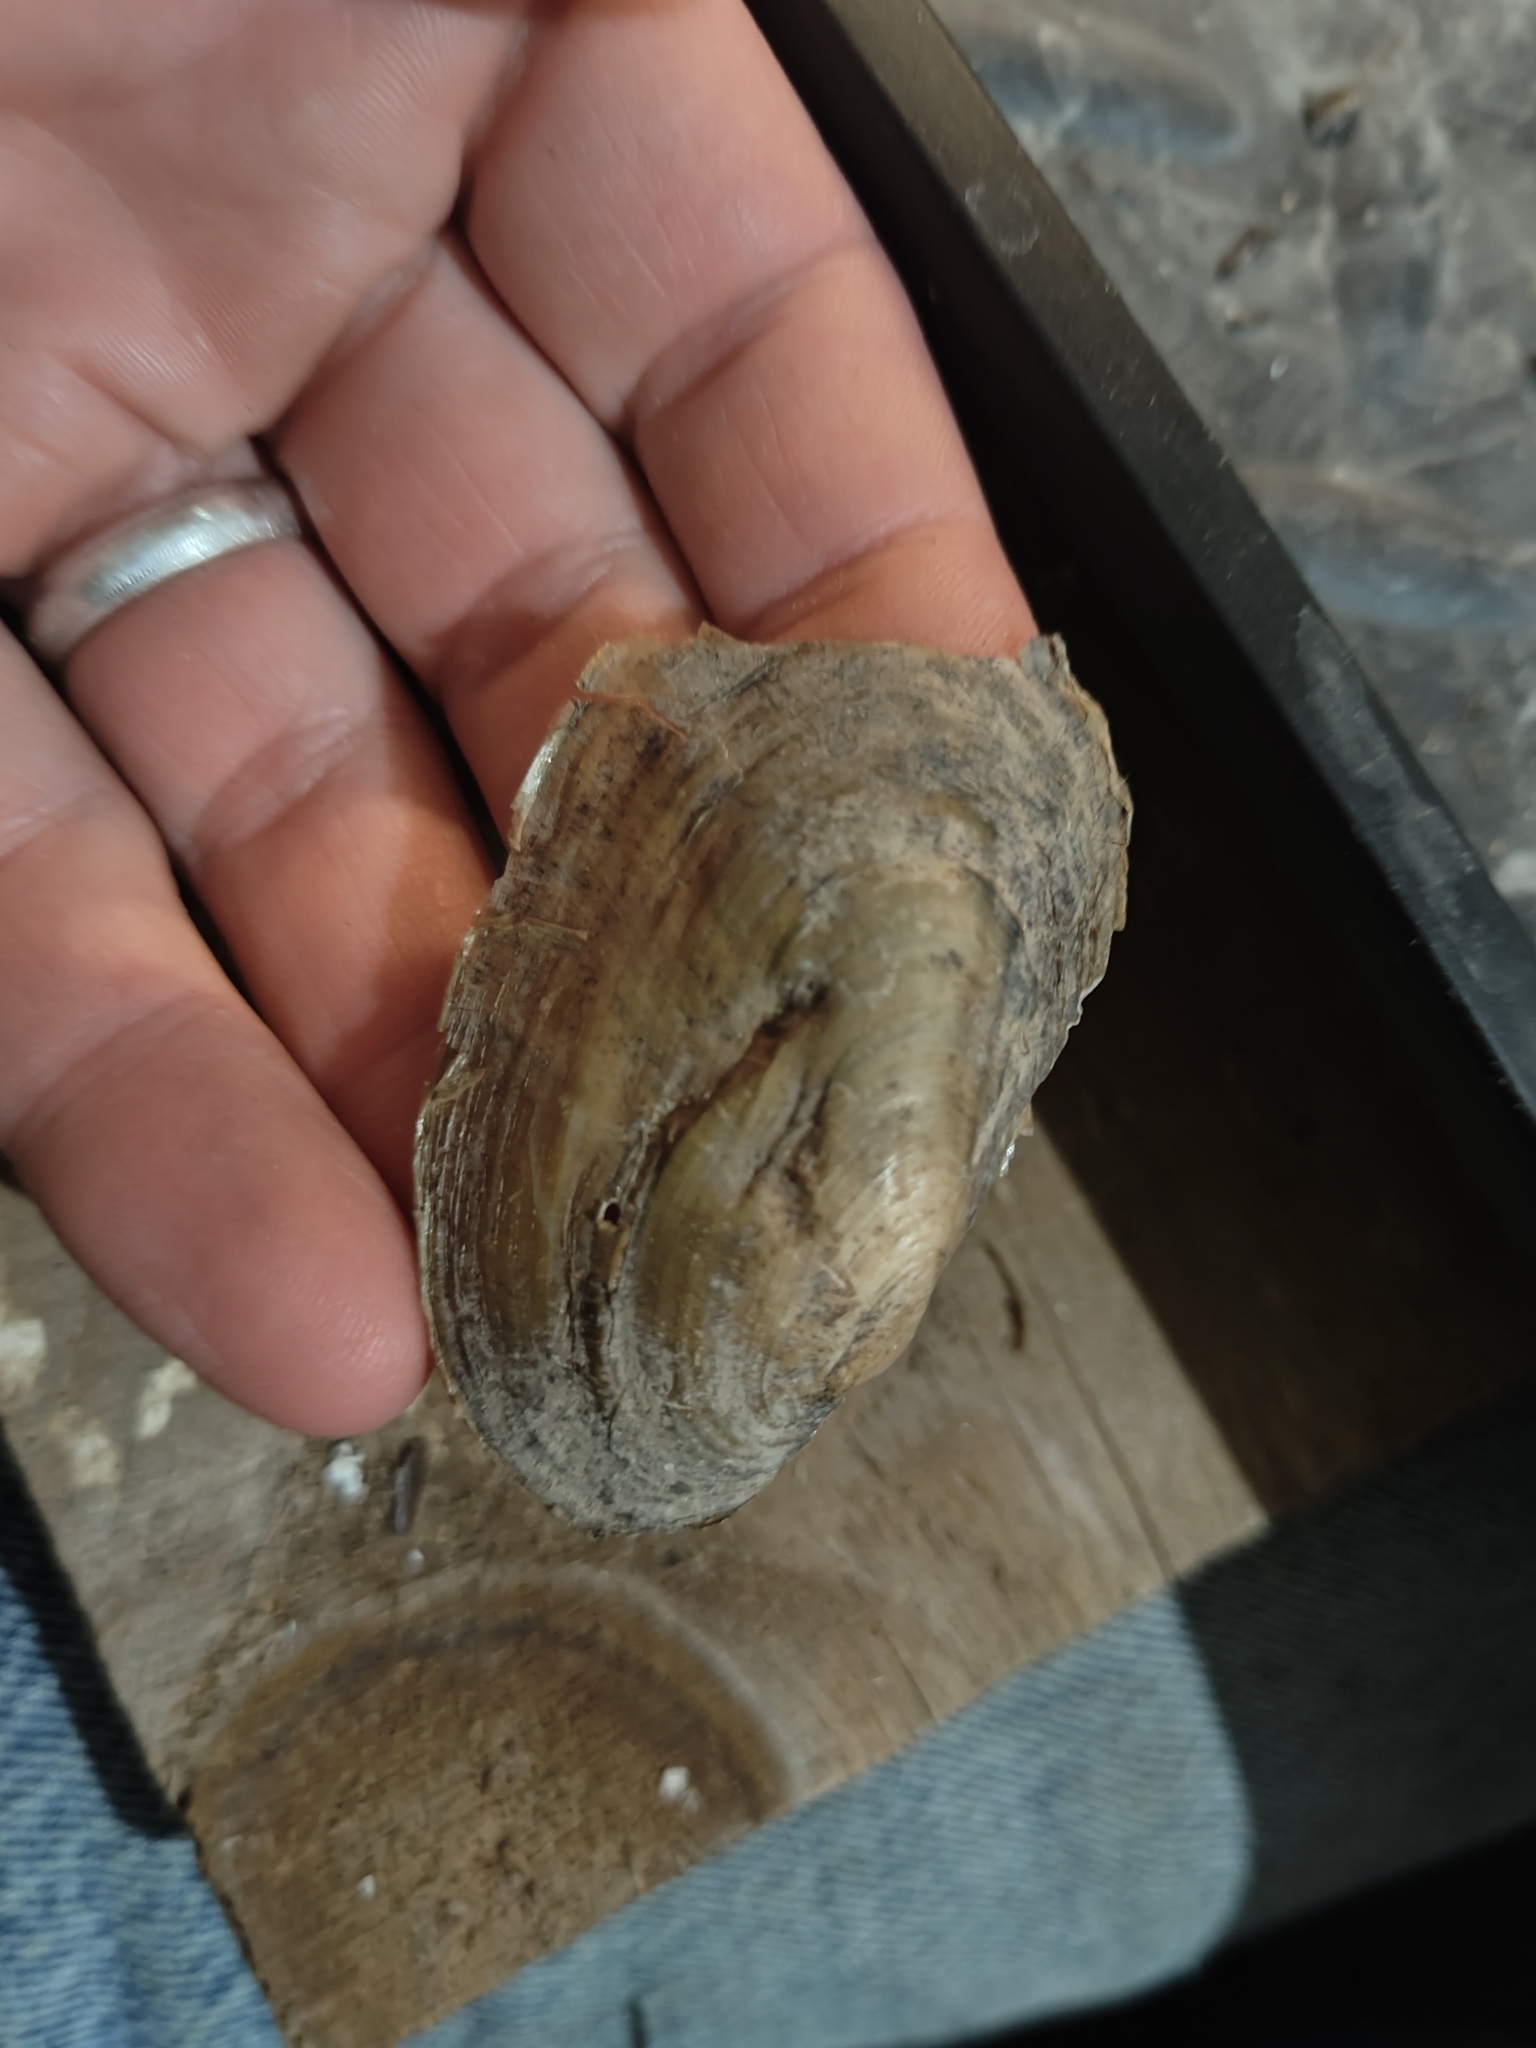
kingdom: Animalia
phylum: Mollusca
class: Bivalvia
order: Unionida
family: Unionidae
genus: Potamilus
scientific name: Potamilus fragilis
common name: Fragile papershell
